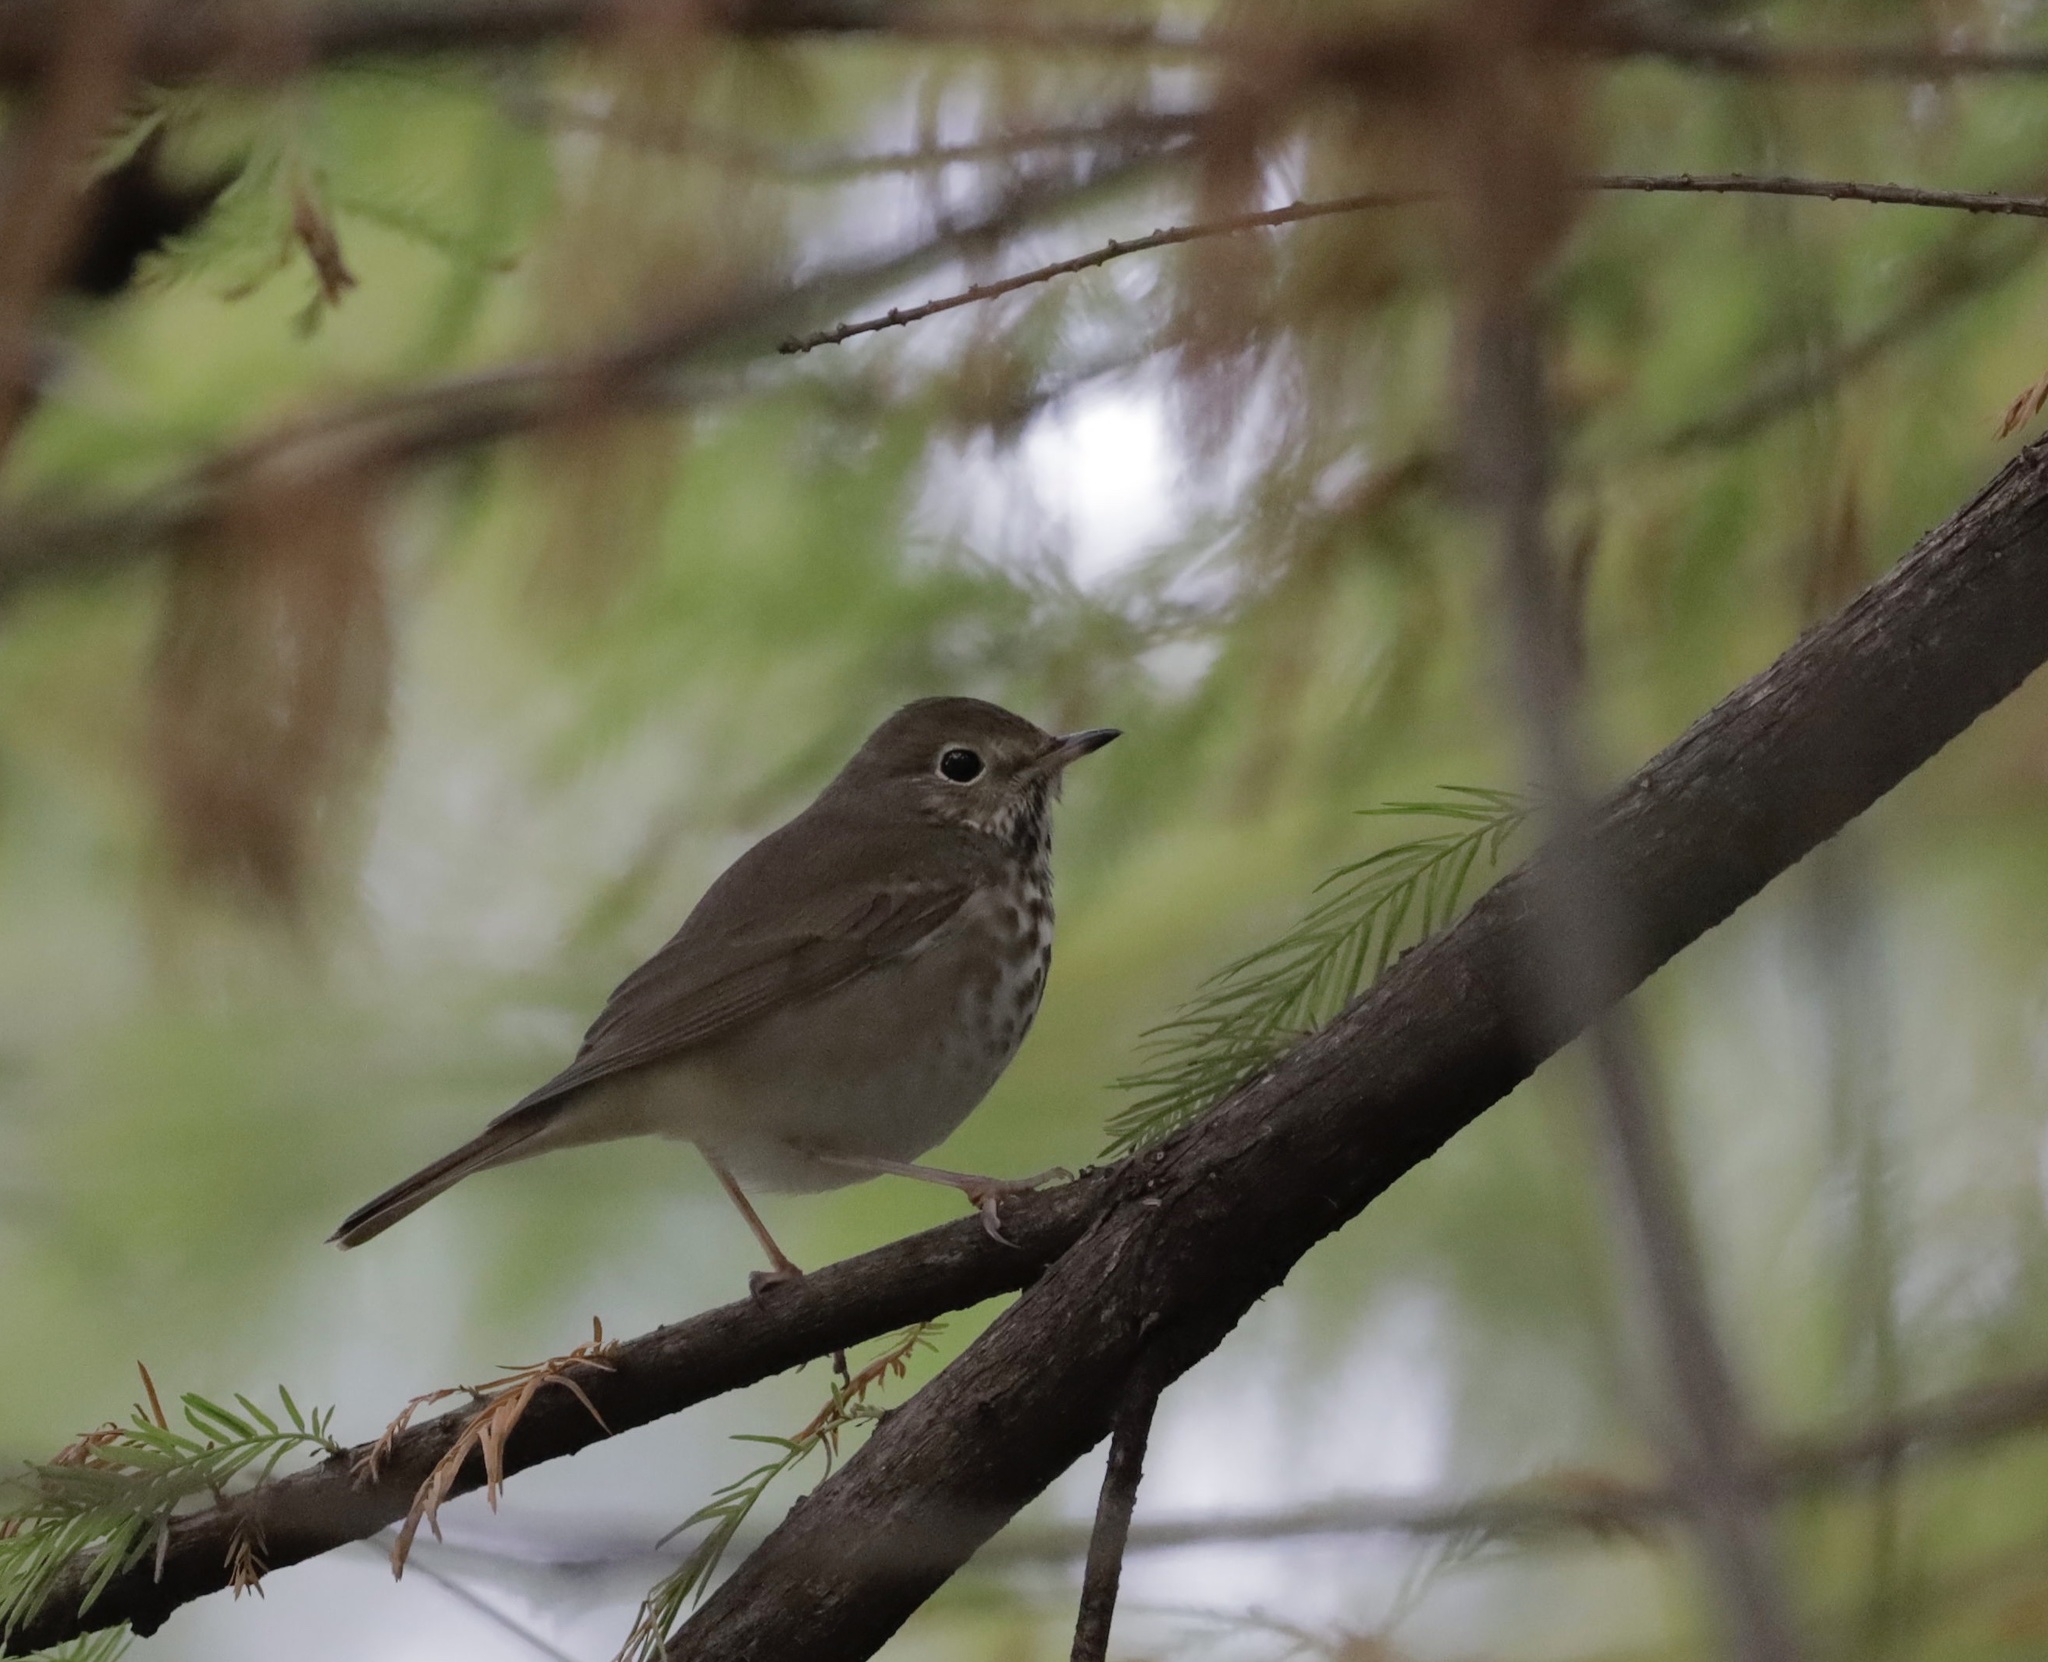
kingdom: Animalia
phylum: Chordata
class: Aves
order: Passeriformes
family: Turdidae
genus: Catharus
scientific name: Catharus guttatus
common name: Hermit thrush
